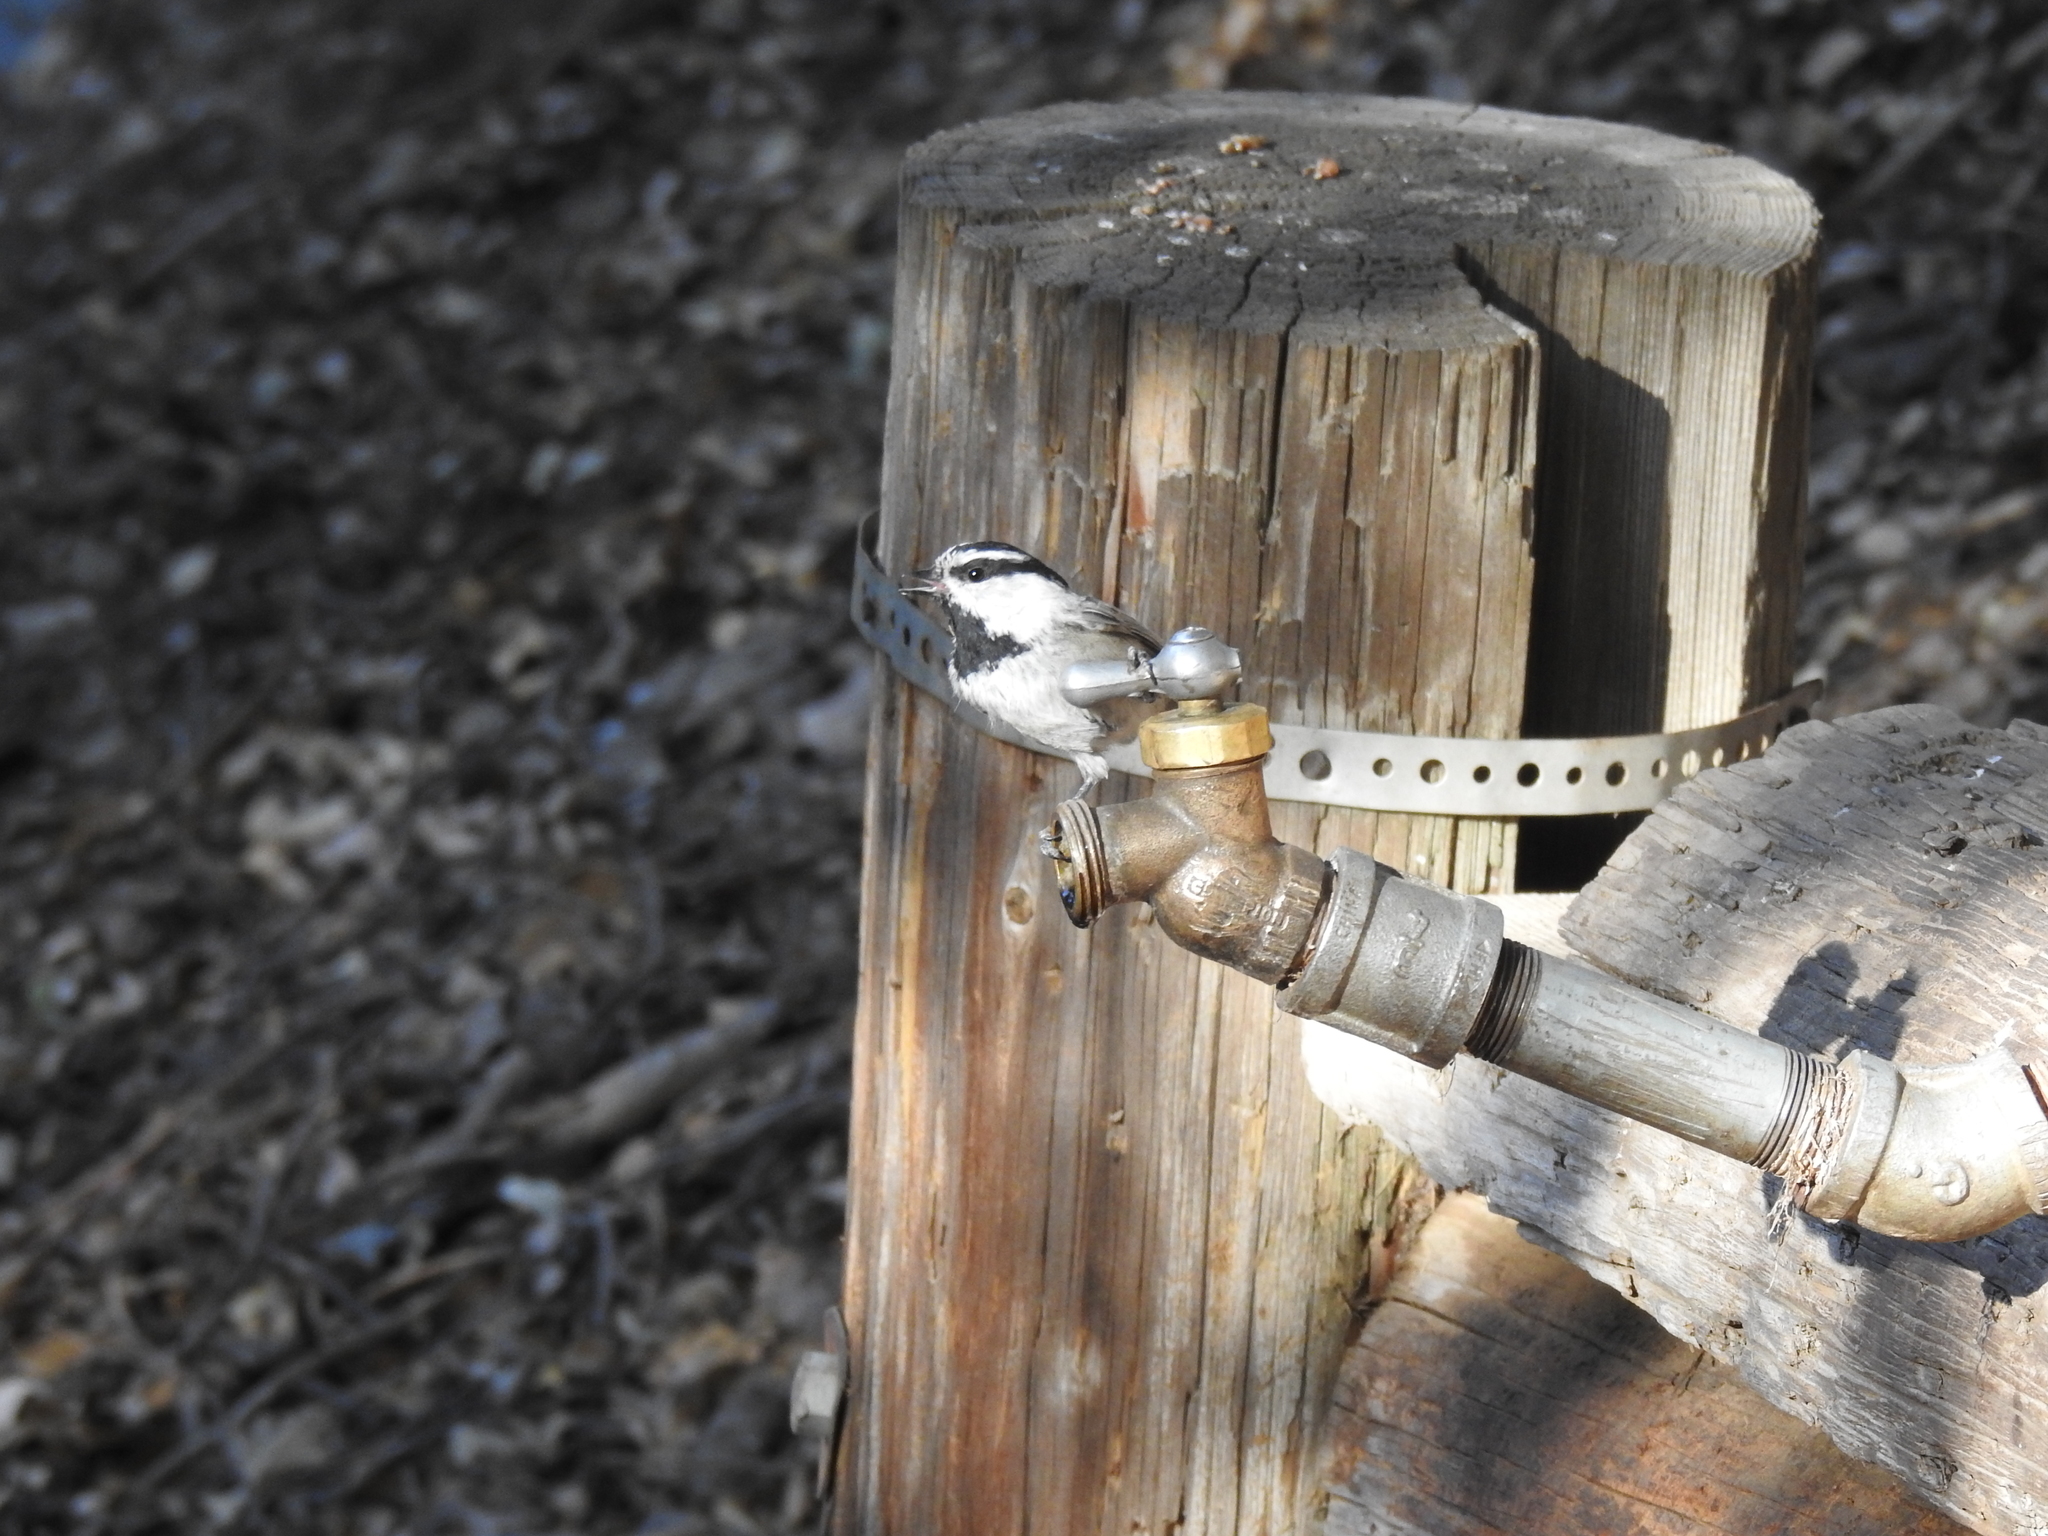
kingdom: Animalia
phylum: Chordata
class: Aves
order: Passeriformes
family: Paridae
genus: Poecile
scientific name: Poecile gambeli
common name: Mountain chickadee
